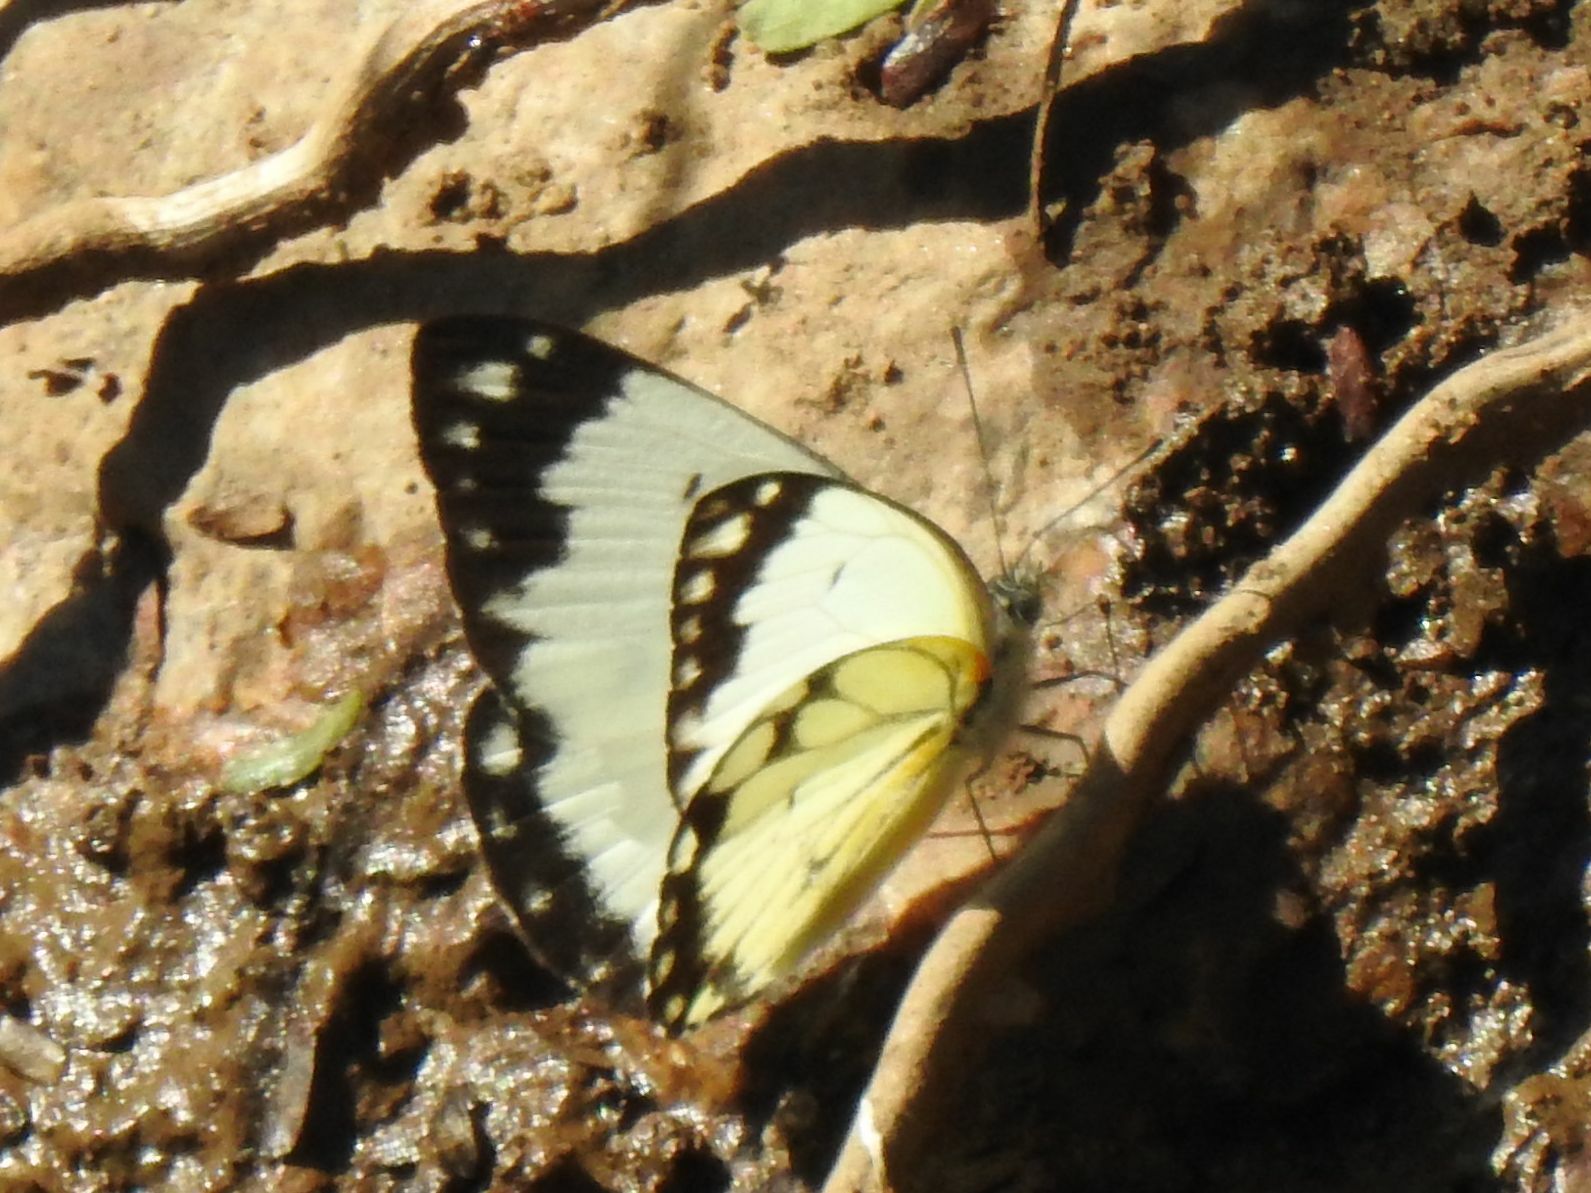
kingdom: Animalia
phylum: Arthropoda
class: Insecta
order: Lepidoptera
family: Pieridae
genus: Belenois
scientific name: Belenois creona
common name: African caper white
